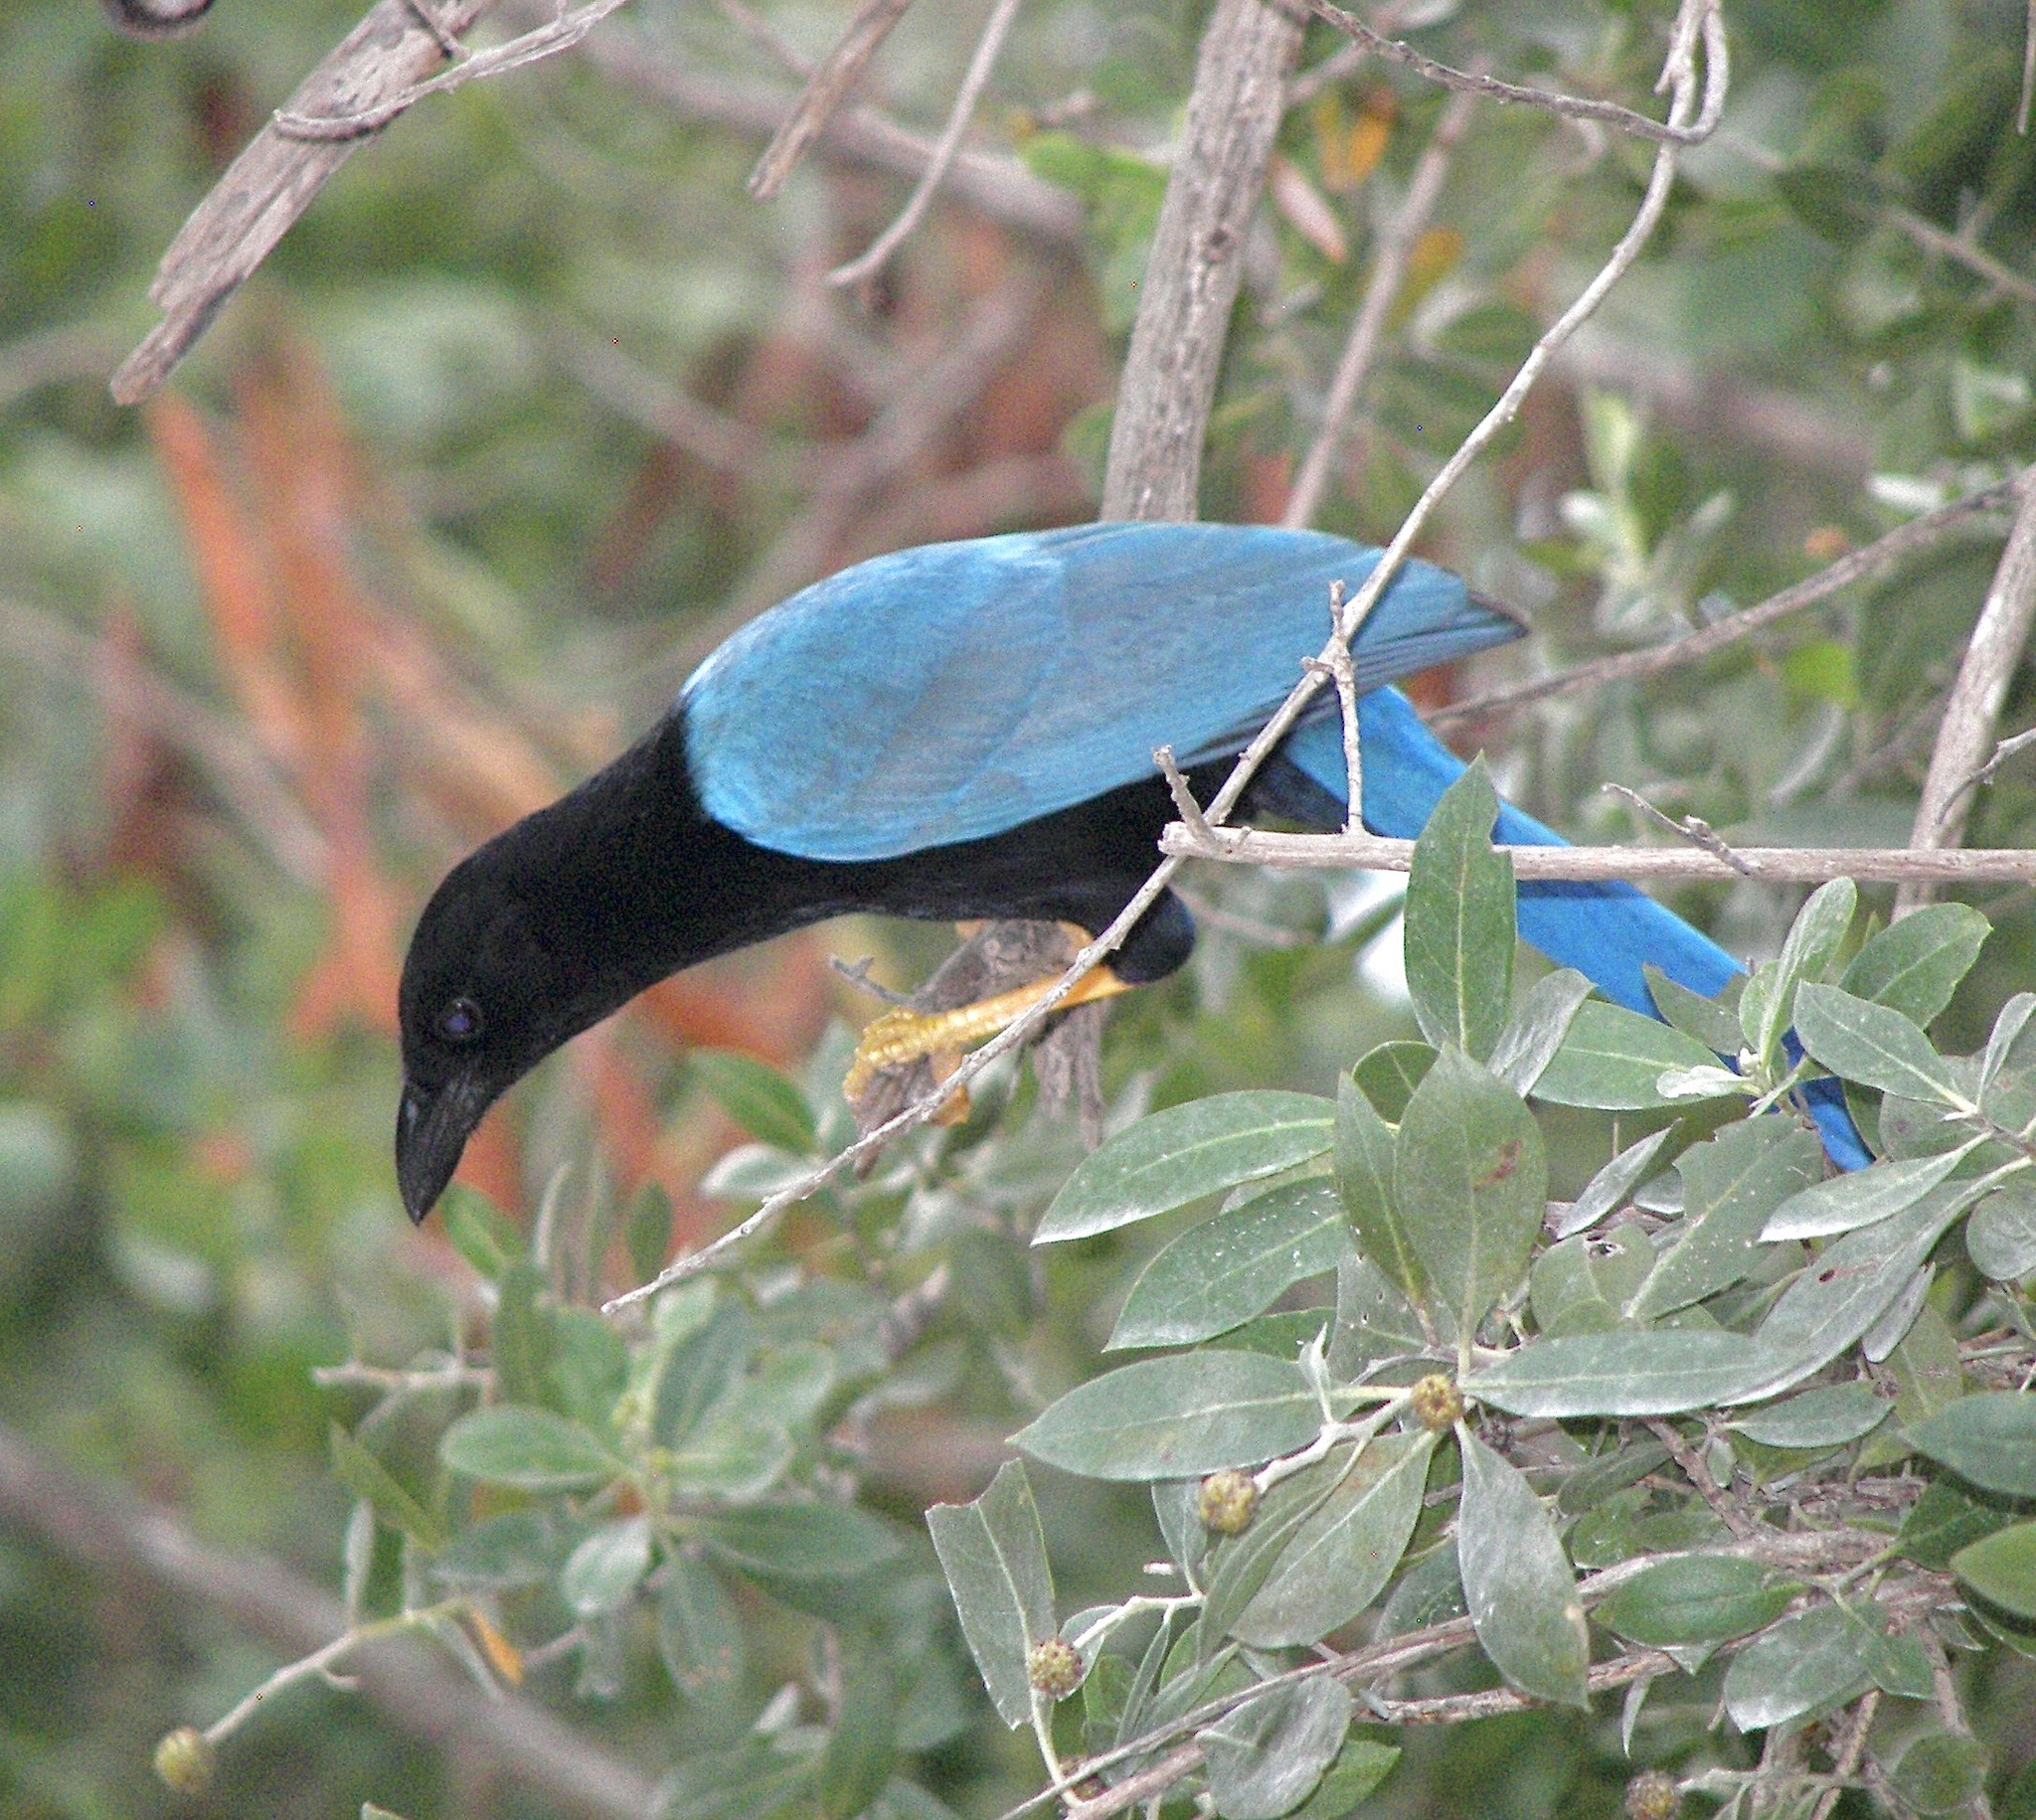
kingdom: Animalia
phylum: Chordata
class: Aves
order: Passeriformes
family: Corvidae
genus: Cyanocorax
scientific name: Cyanocorax yucatanicus
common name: Yucatan jay
